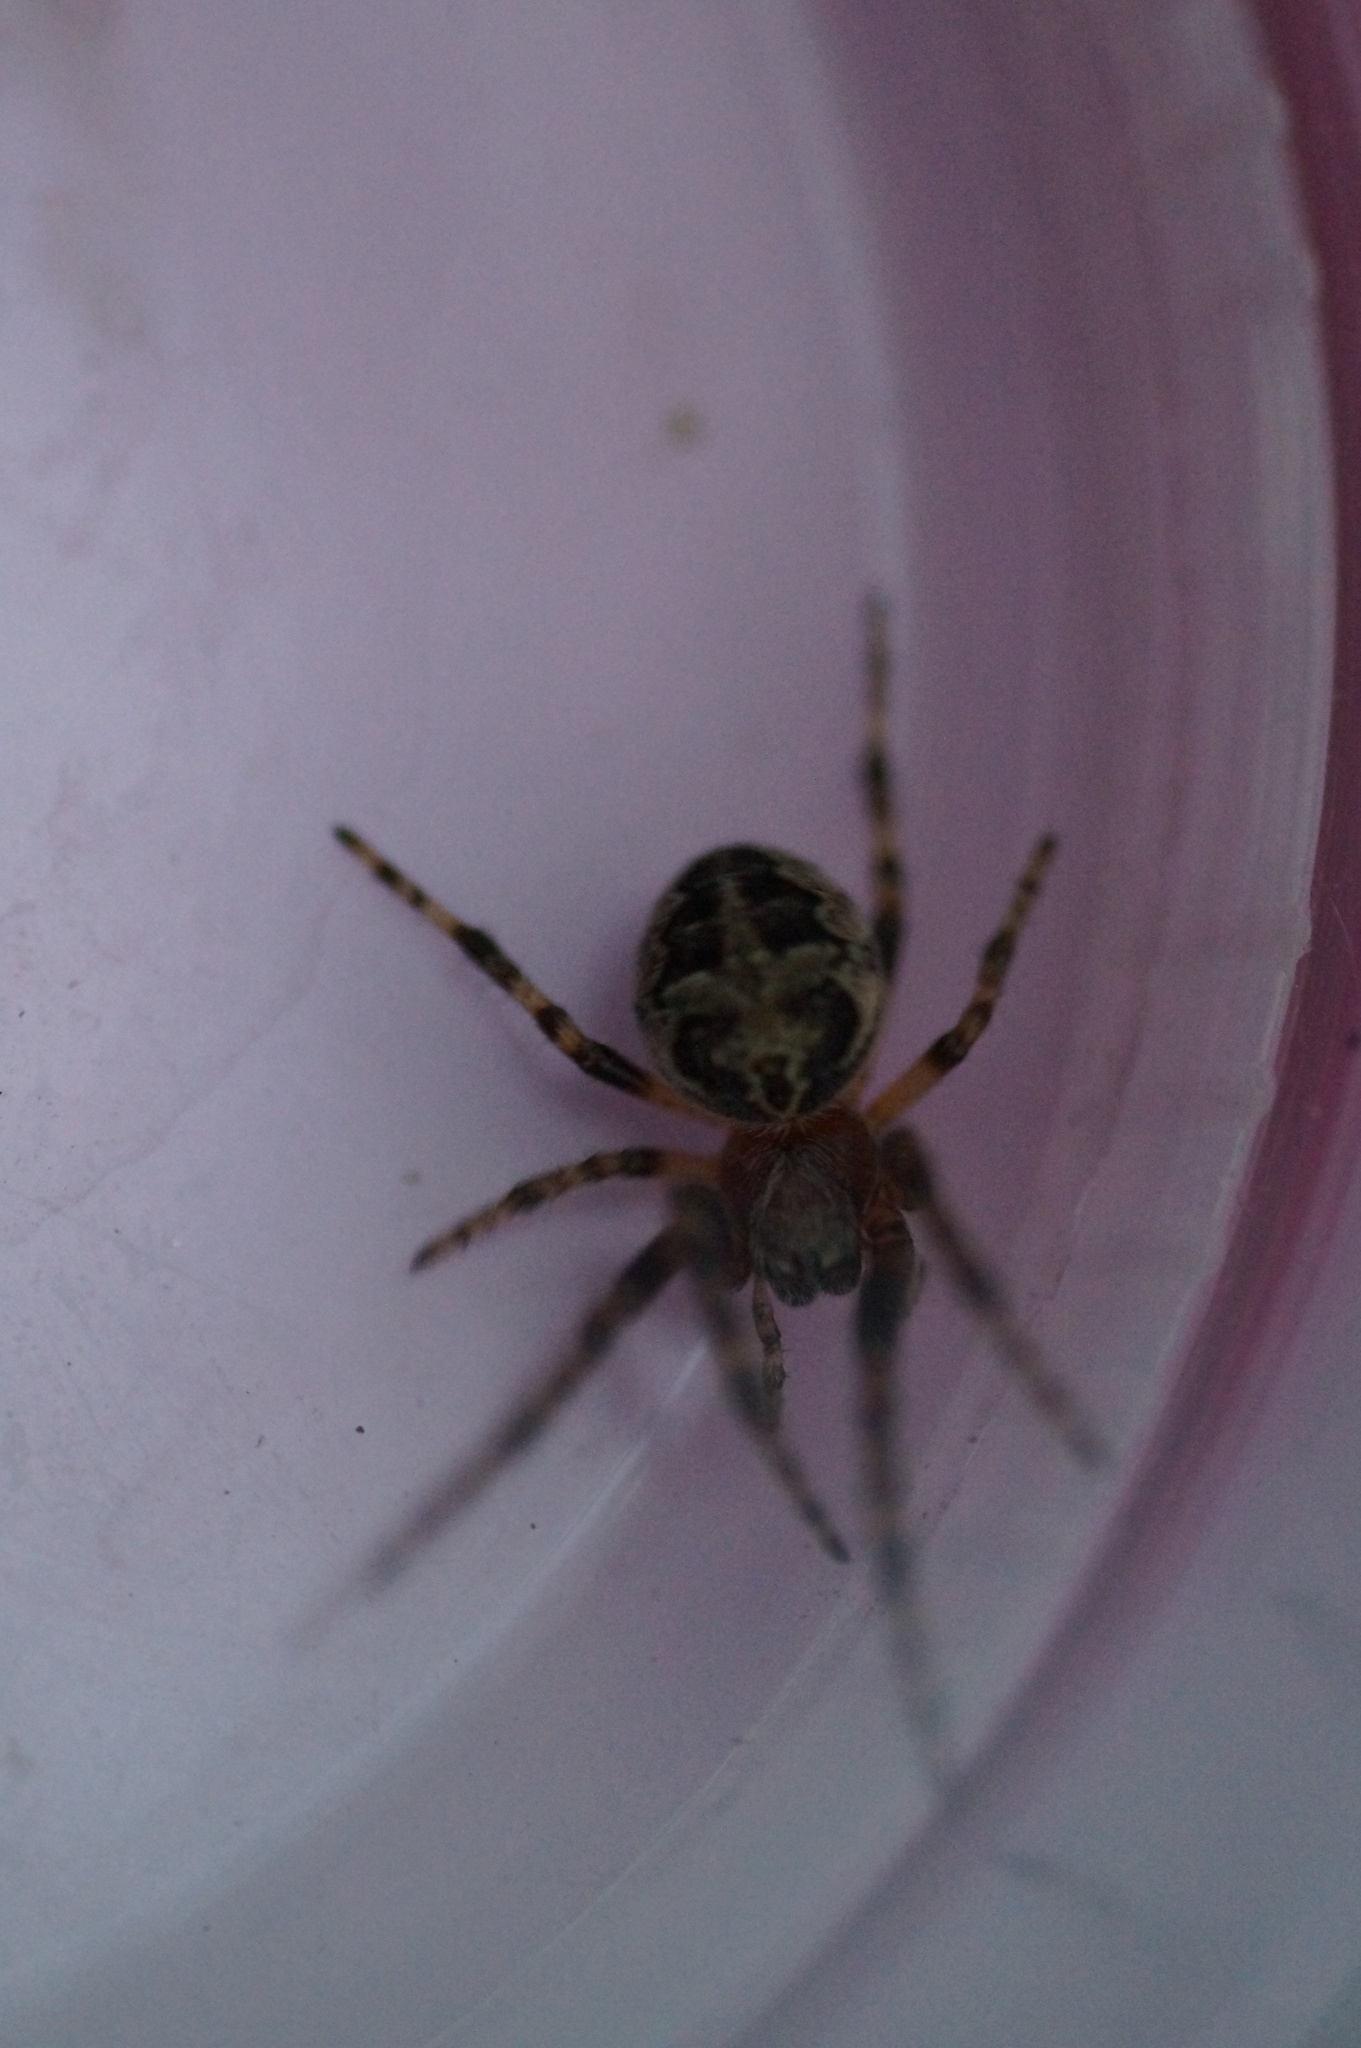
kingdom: Animalia
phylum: Arthropoda
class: Arachnida
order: Araneae
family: Araneidae
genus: Larinioides
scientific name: Larinioides patagiatus
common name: Ornamental orbweaver
